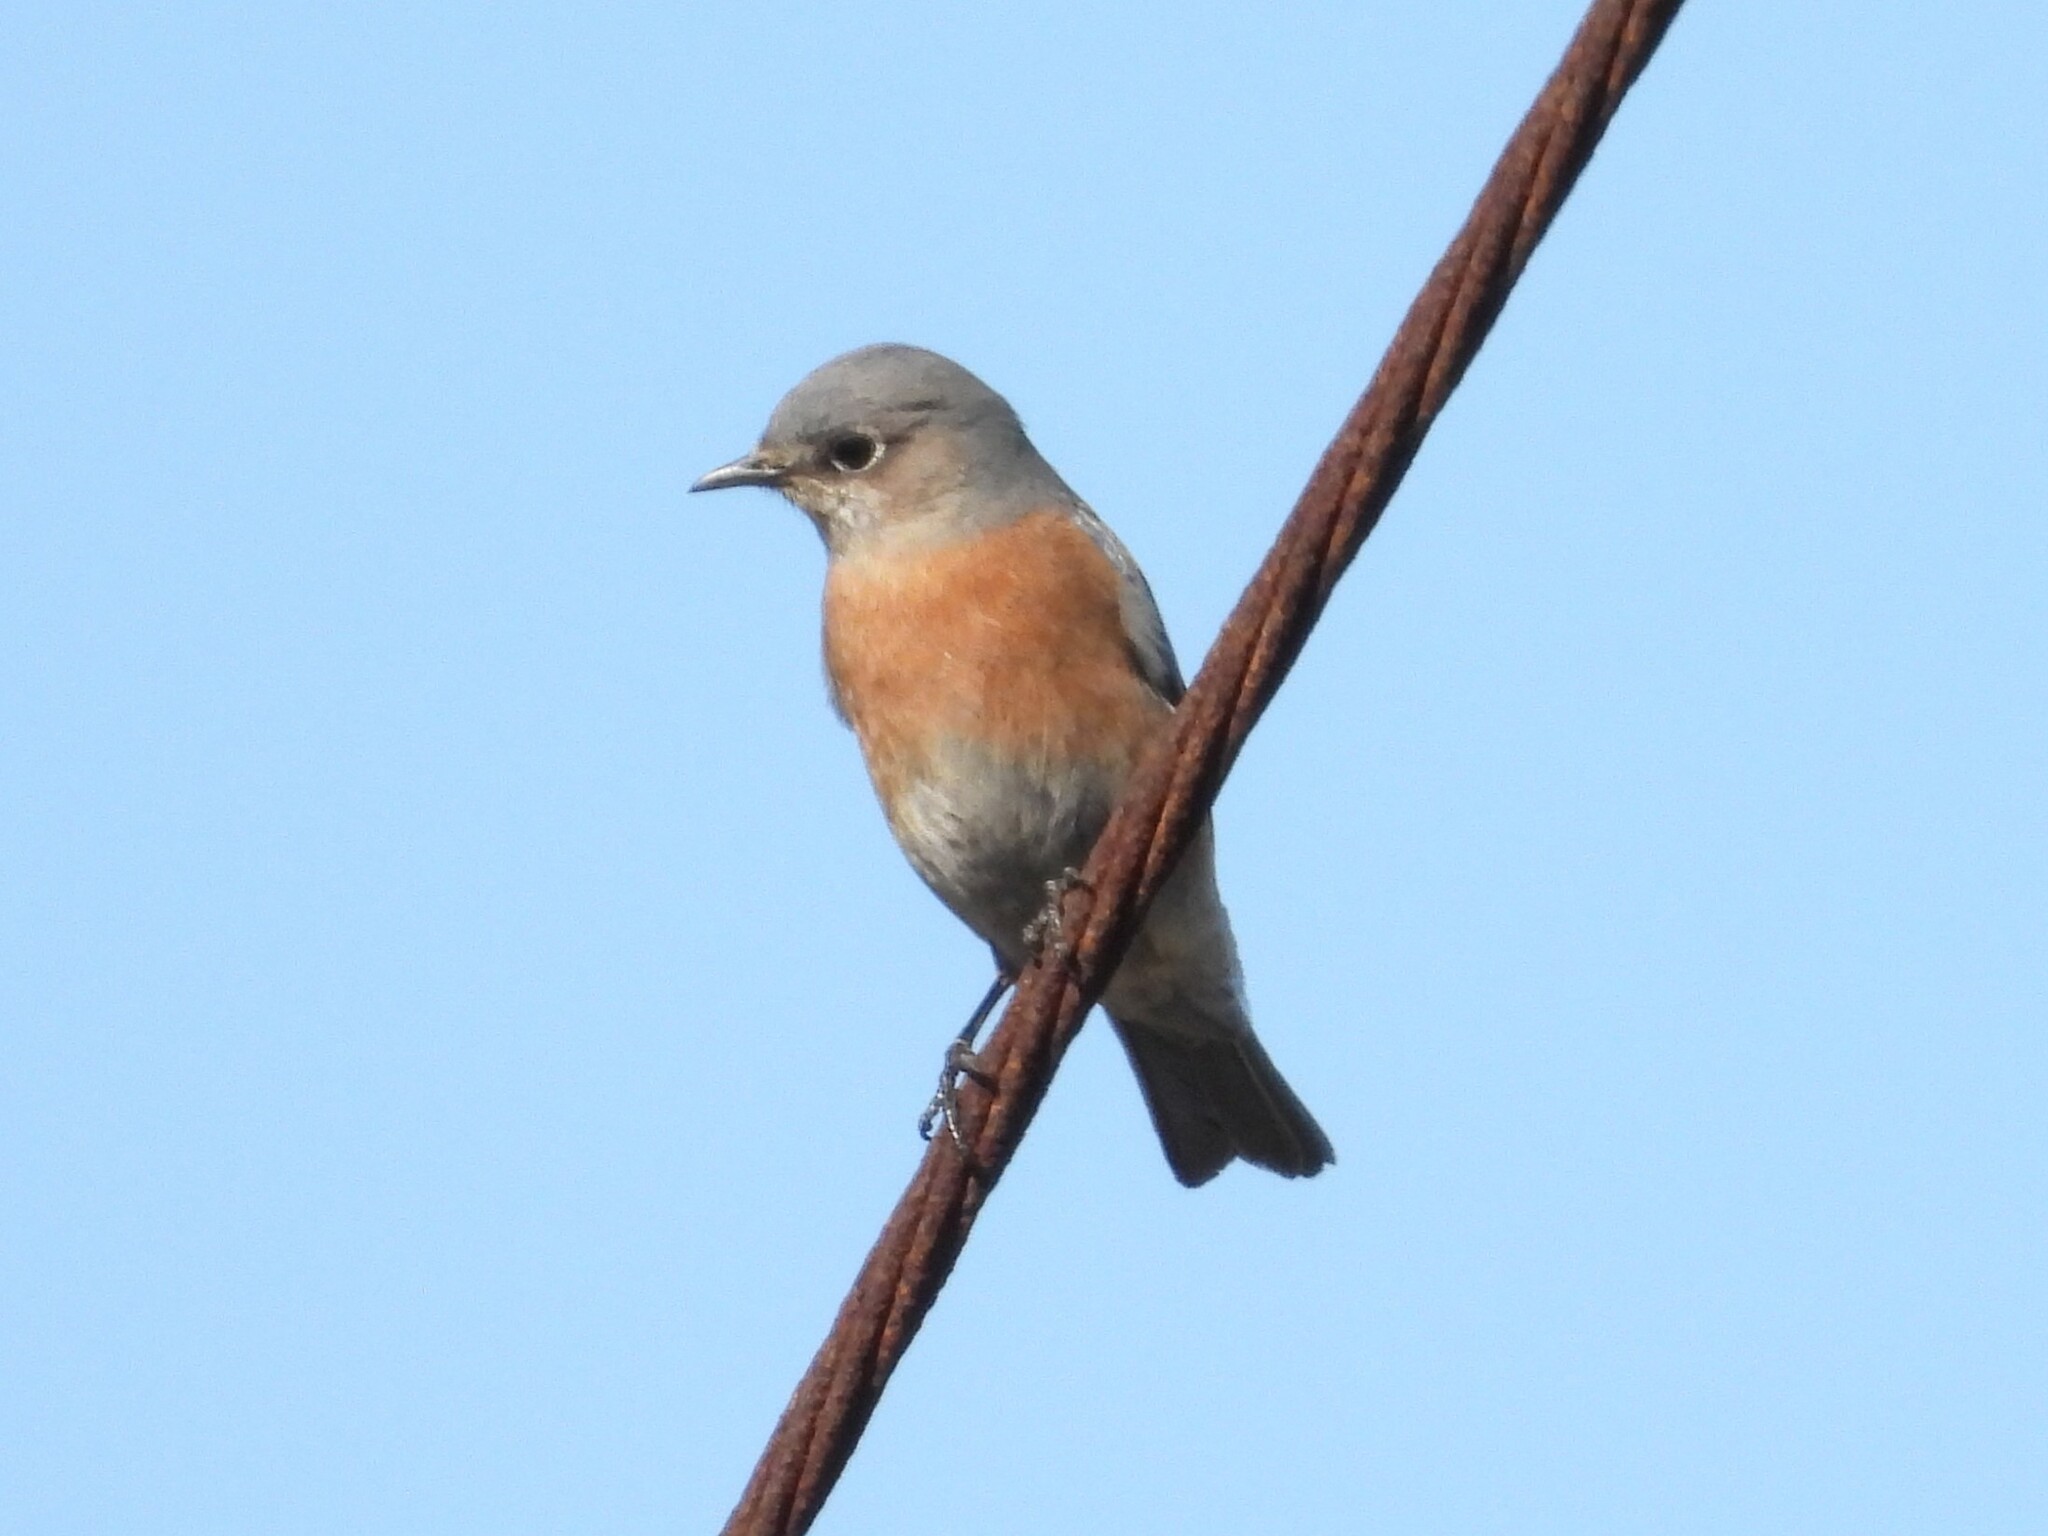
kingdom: Animalia
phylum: Chordata
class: Aves
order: Passeriformes
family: Turdidae
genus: Sialia
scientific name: Sialia mexicana
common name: Western bluebird
